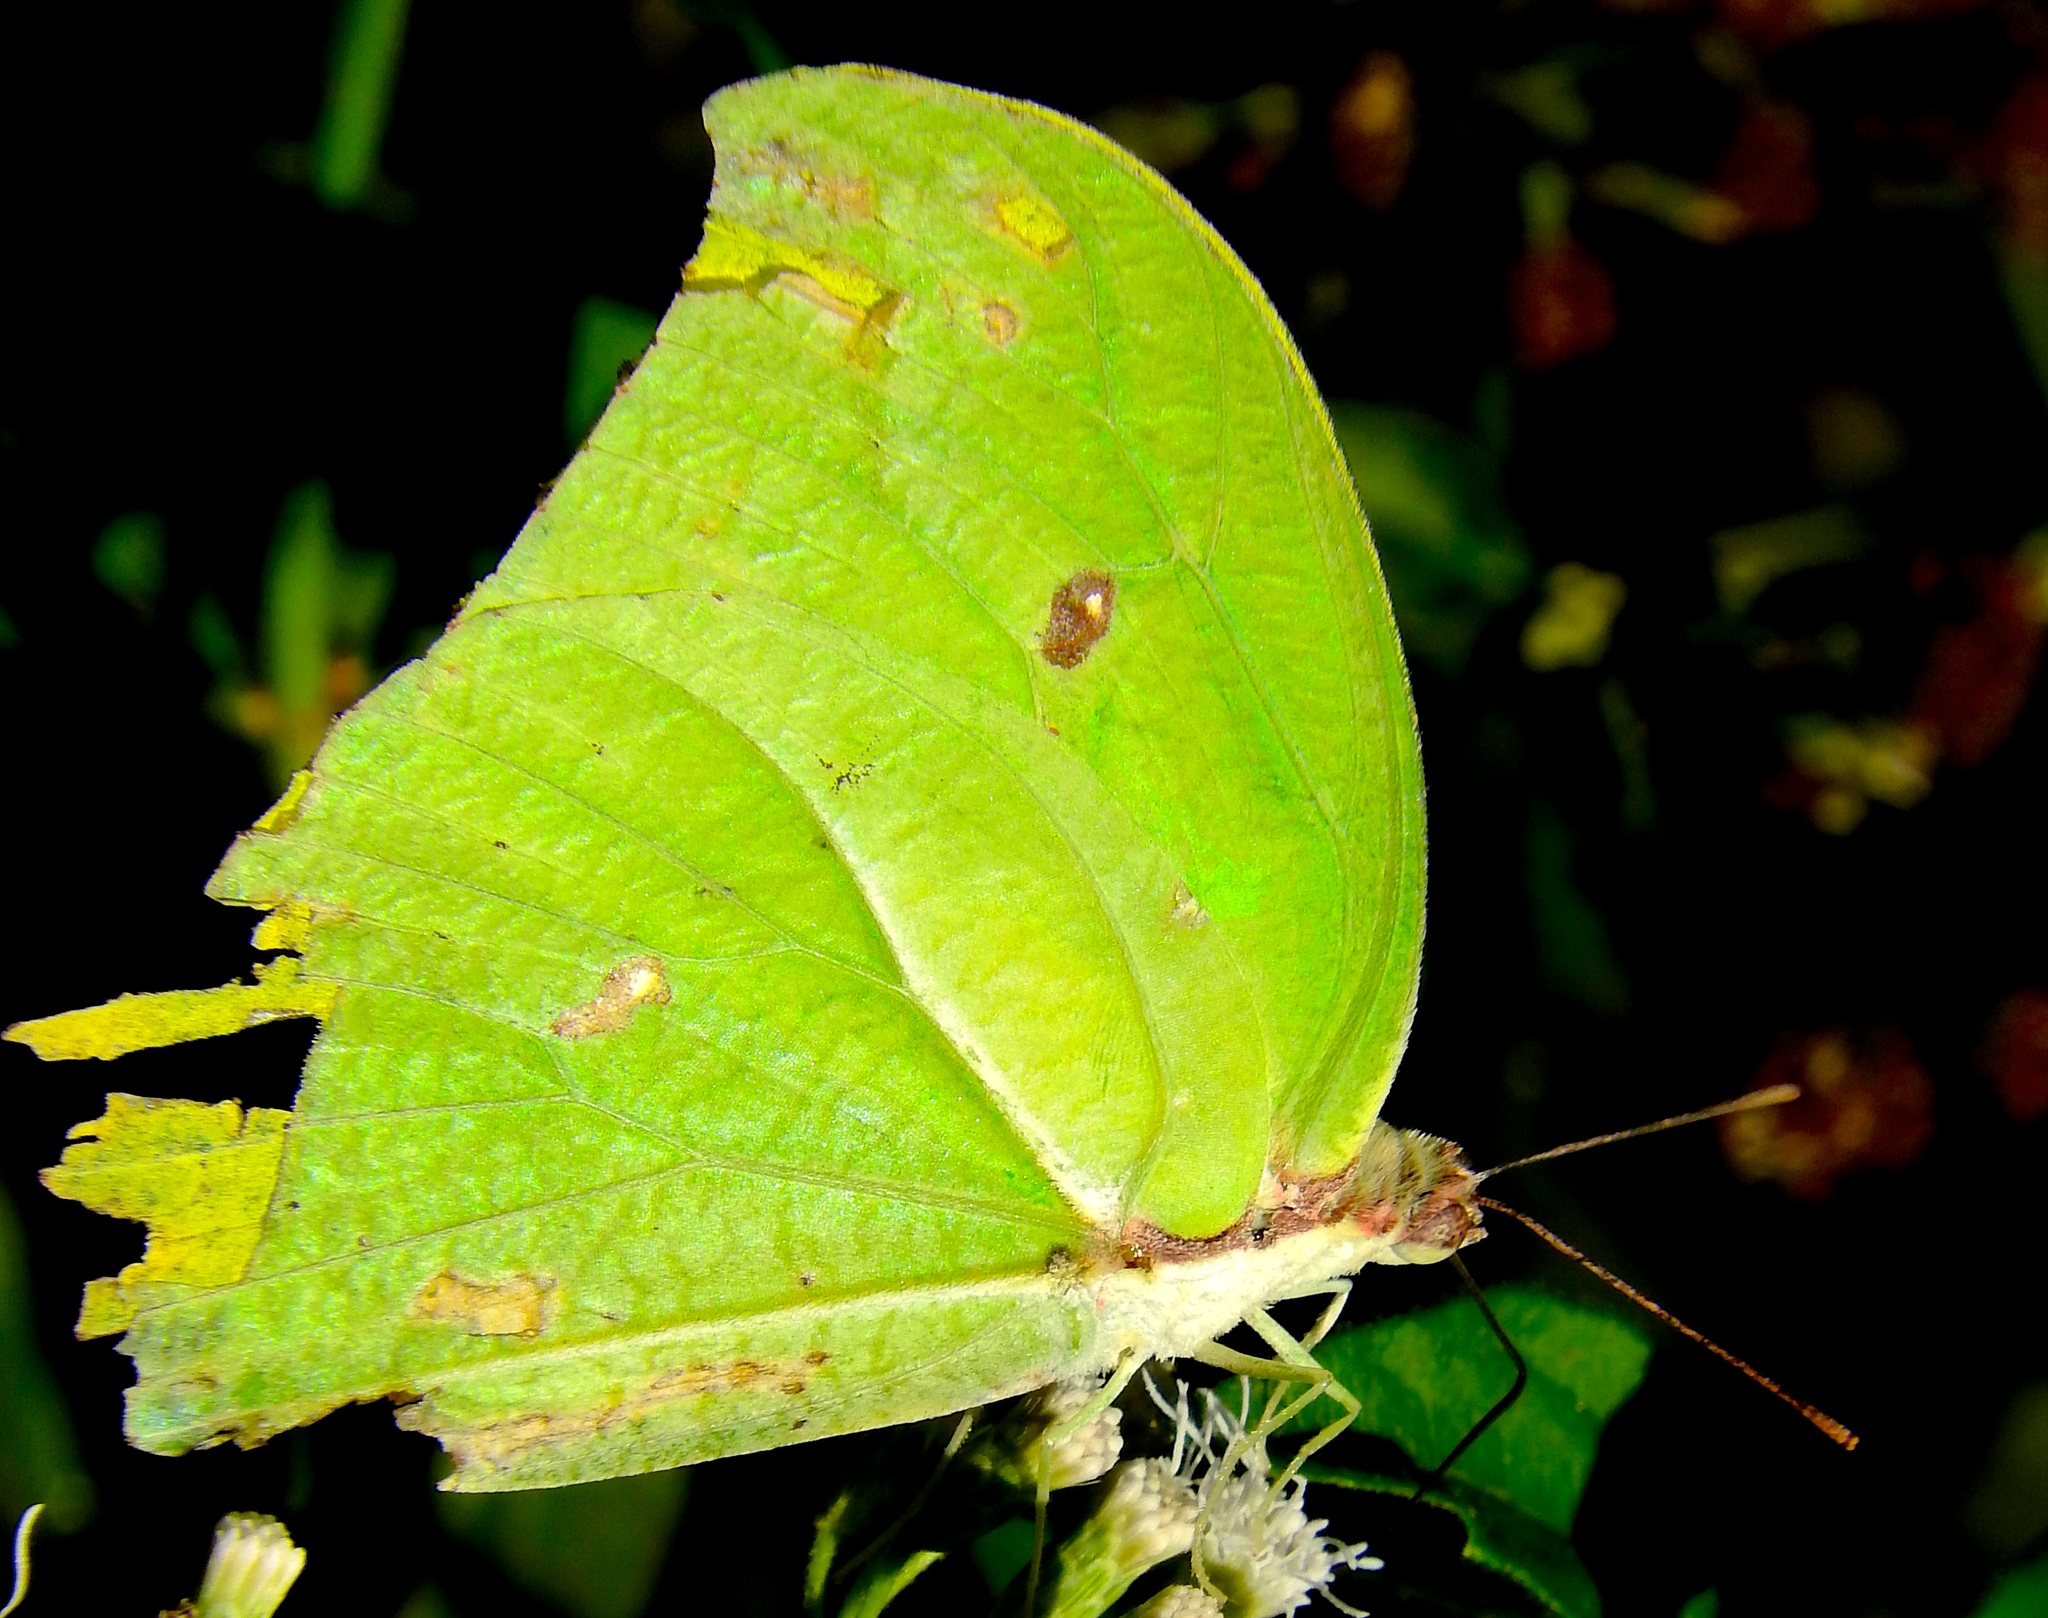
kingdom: Animalia
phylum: Arthropoda
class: Insecta
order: Lepidoptera
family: Pieridae
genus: Anteos
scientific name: Anteos maerula
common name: Angled sulphur
